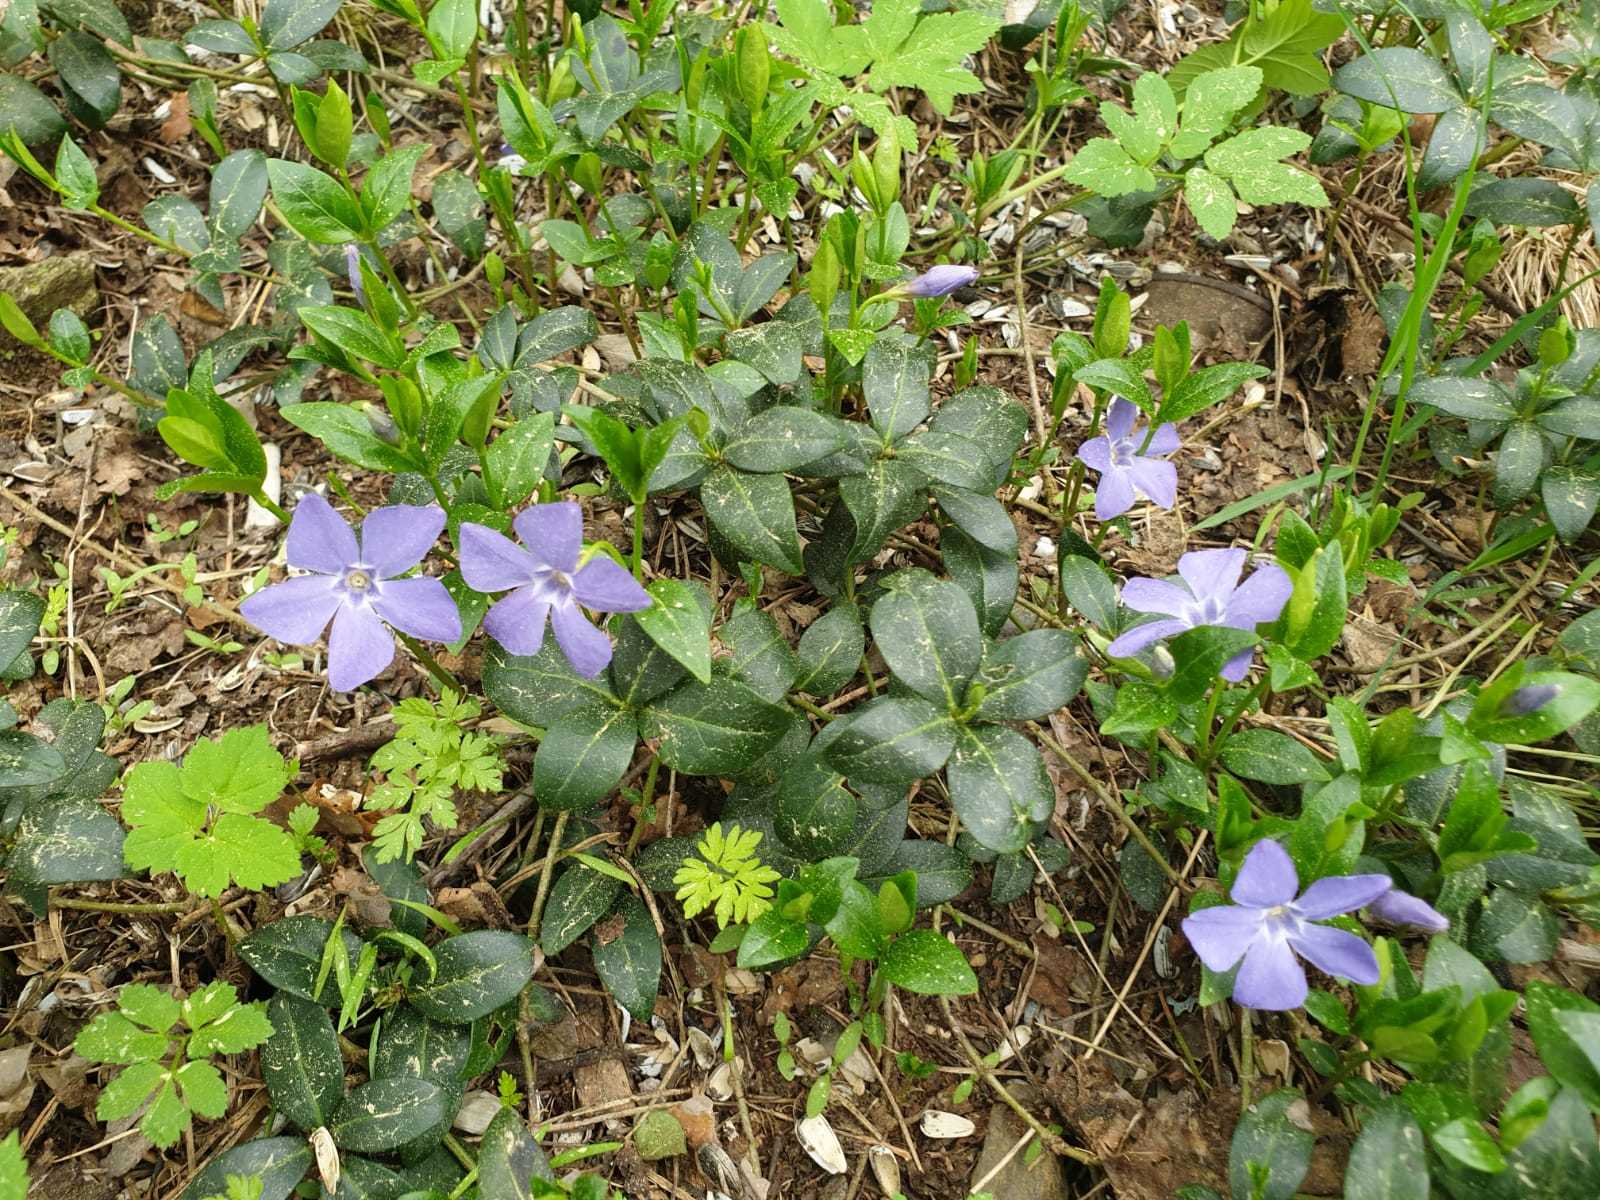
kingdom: Plantae
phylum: Tracheophyta
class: Magnoliopsida
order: Gentianales
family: Apocynaceae
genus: Vinca
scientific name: Vinca minor
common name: Lesser periwinkle
